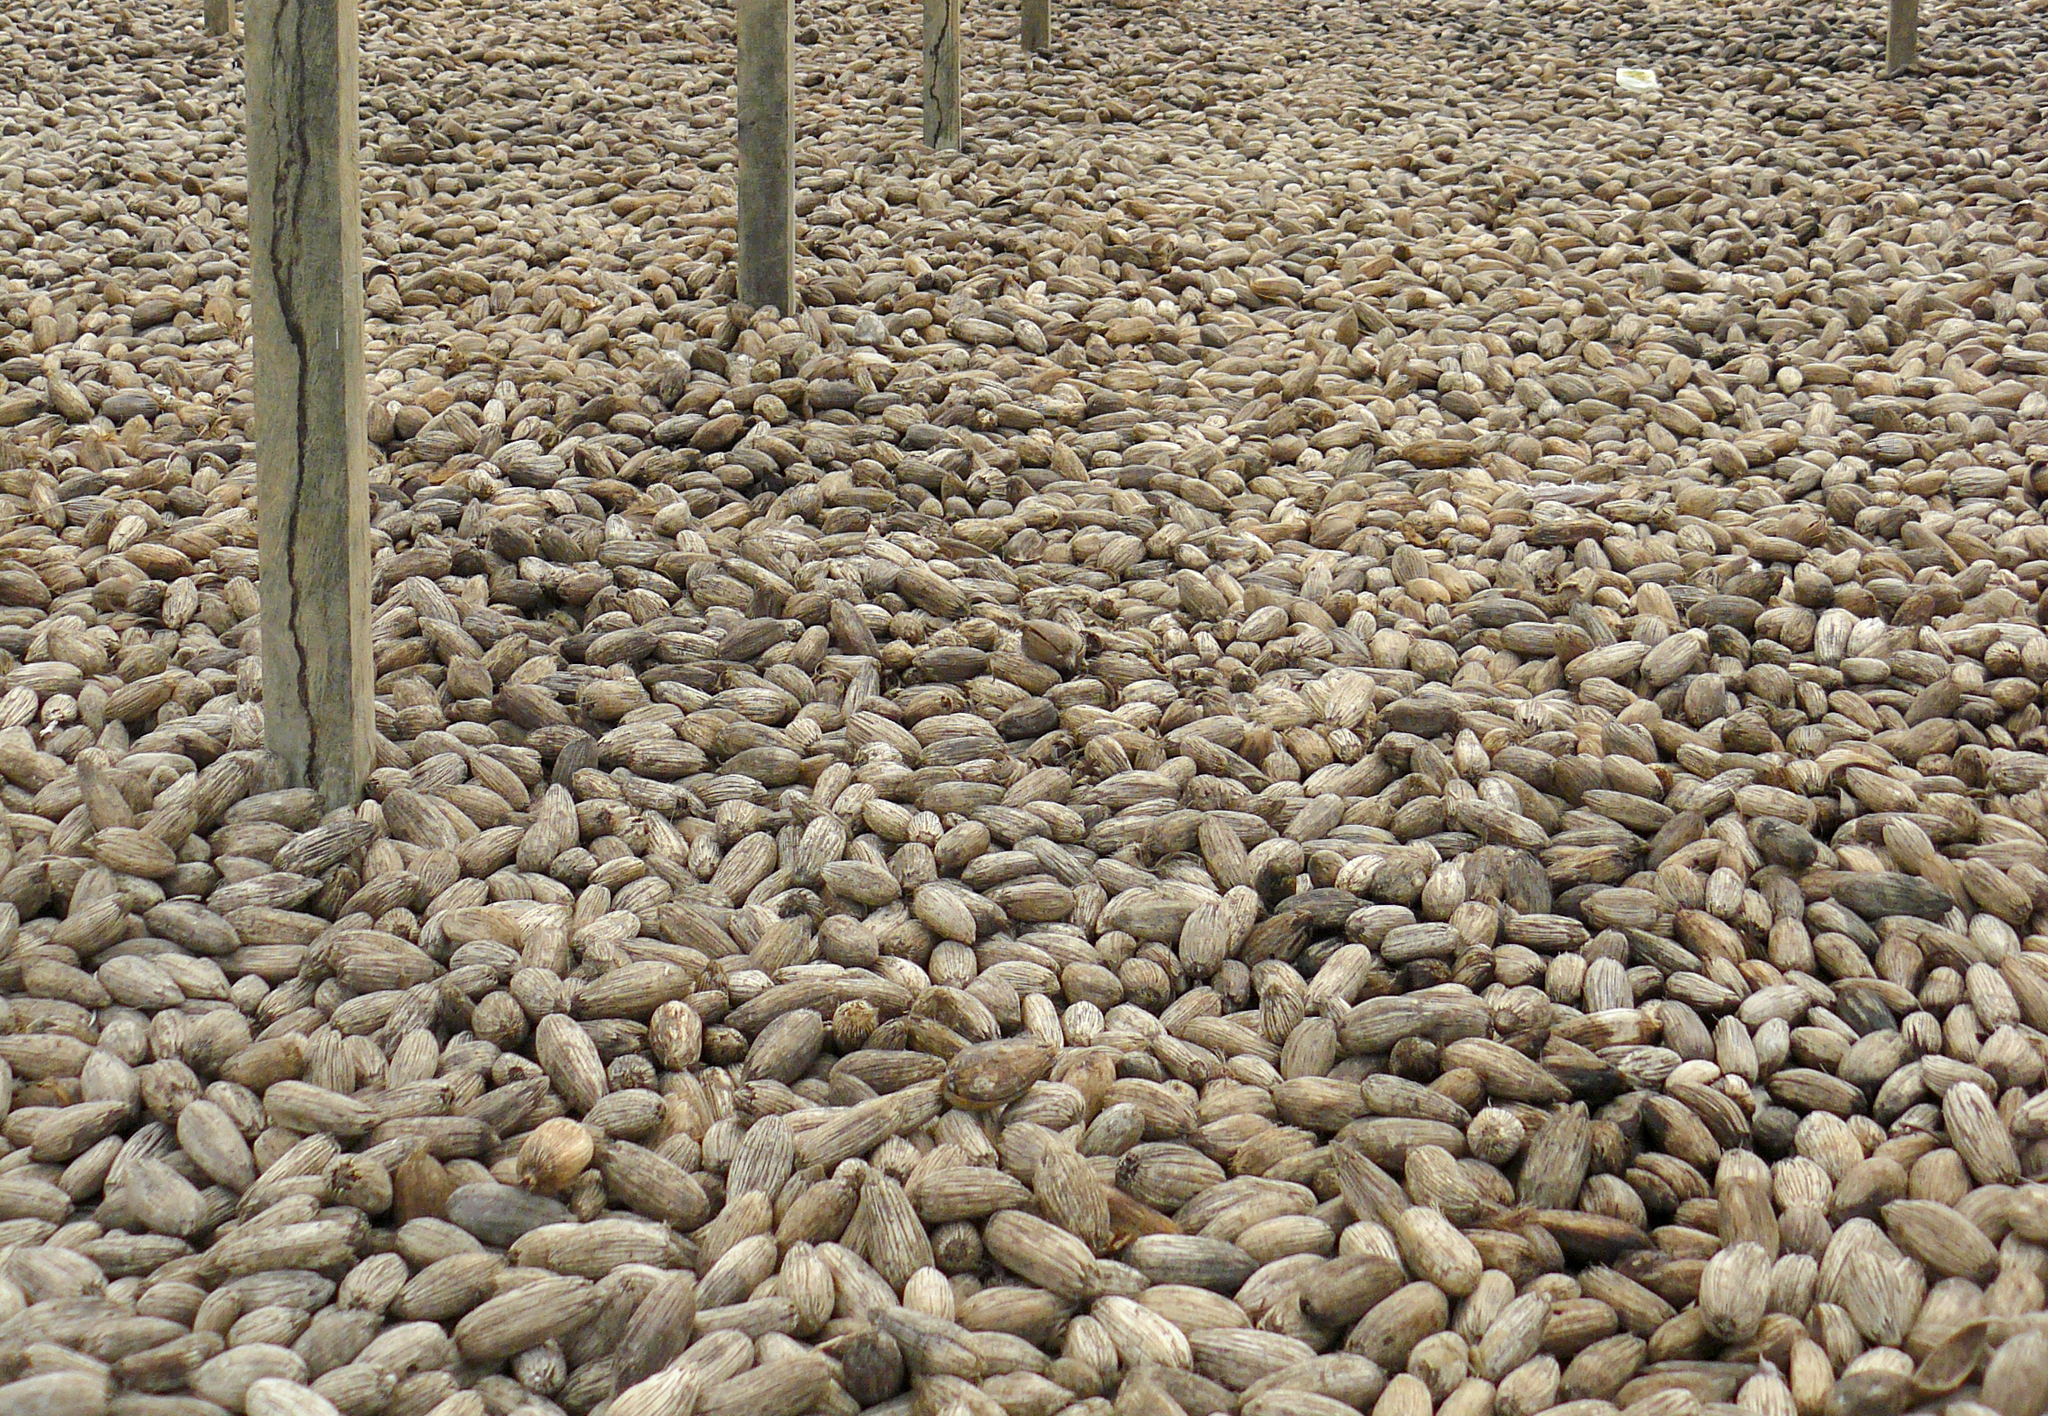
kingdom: Plantae
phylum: Tracheophyta
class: Liliopsida
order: Arecales
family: Arecaceae
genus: Astrocaryum
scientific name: Astrocaryum murumuru
